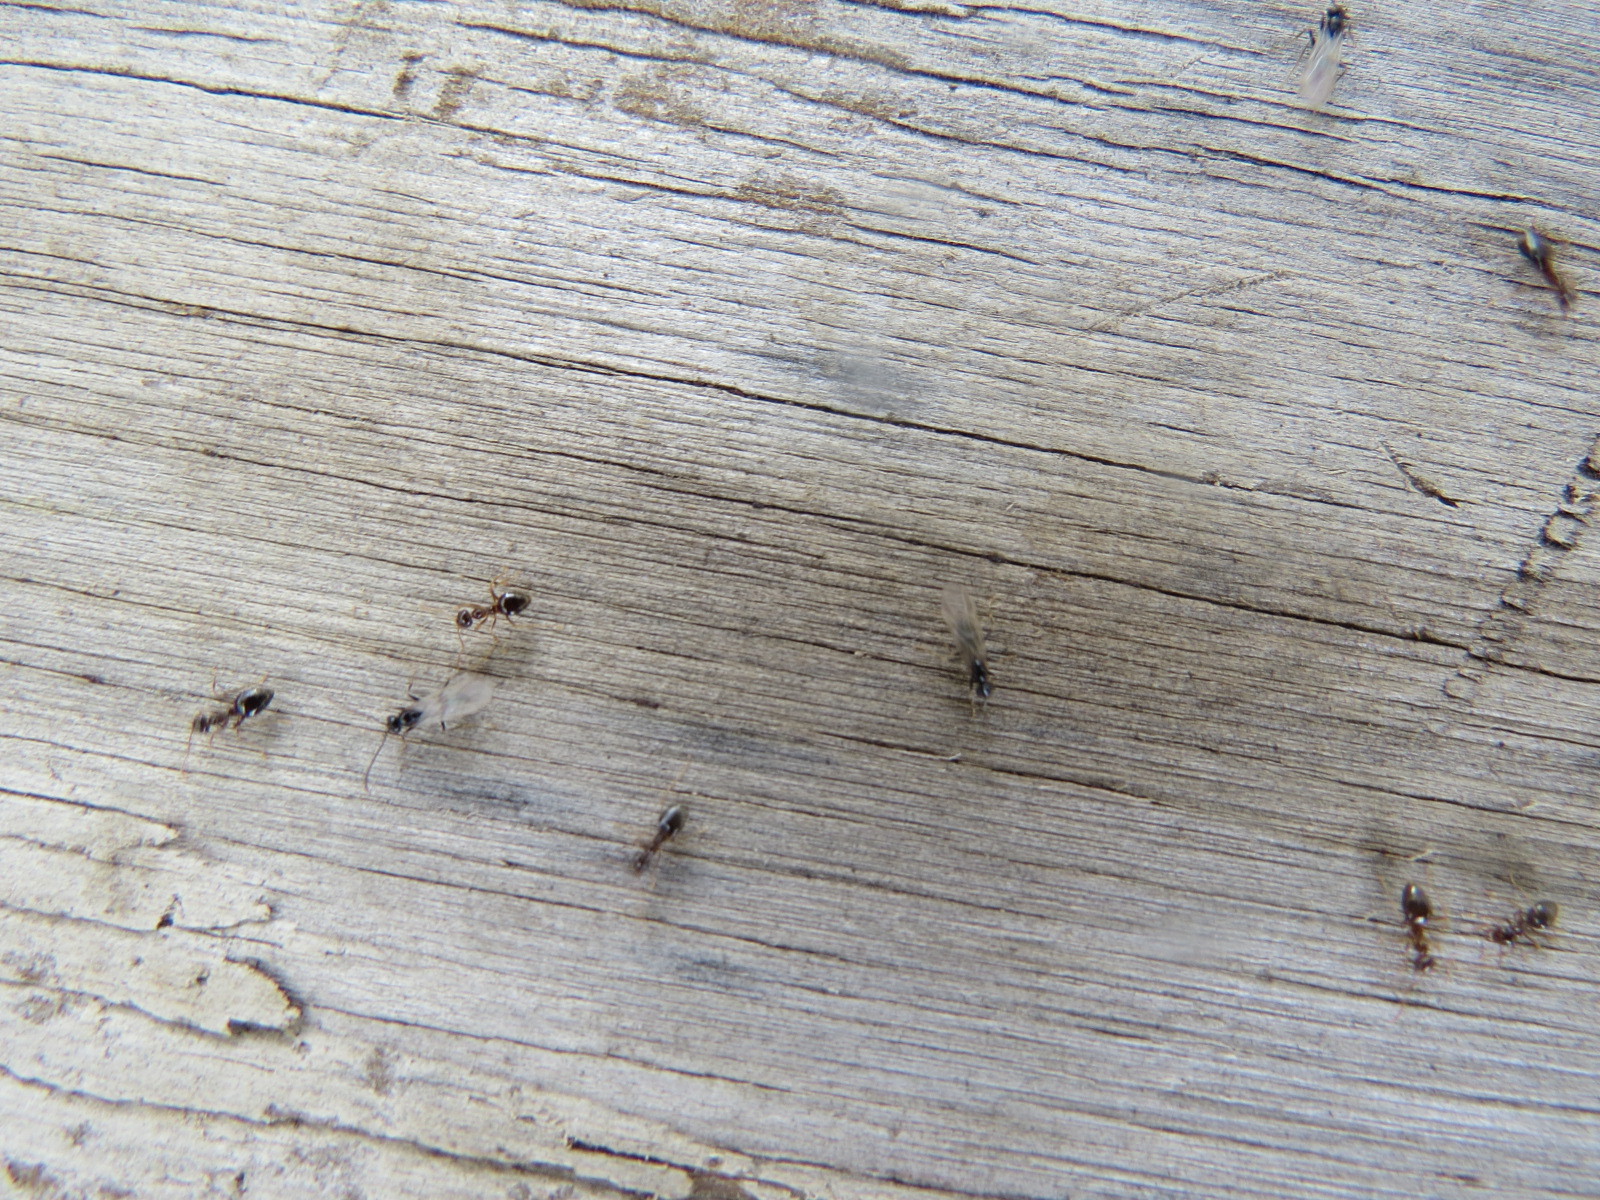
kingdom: Animalia
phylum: Arthropoda
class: Insecta
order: Hymenoptera
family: Formicidae
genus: Prenolepis
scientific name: Prenolepis imparis
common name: Small honey ant
